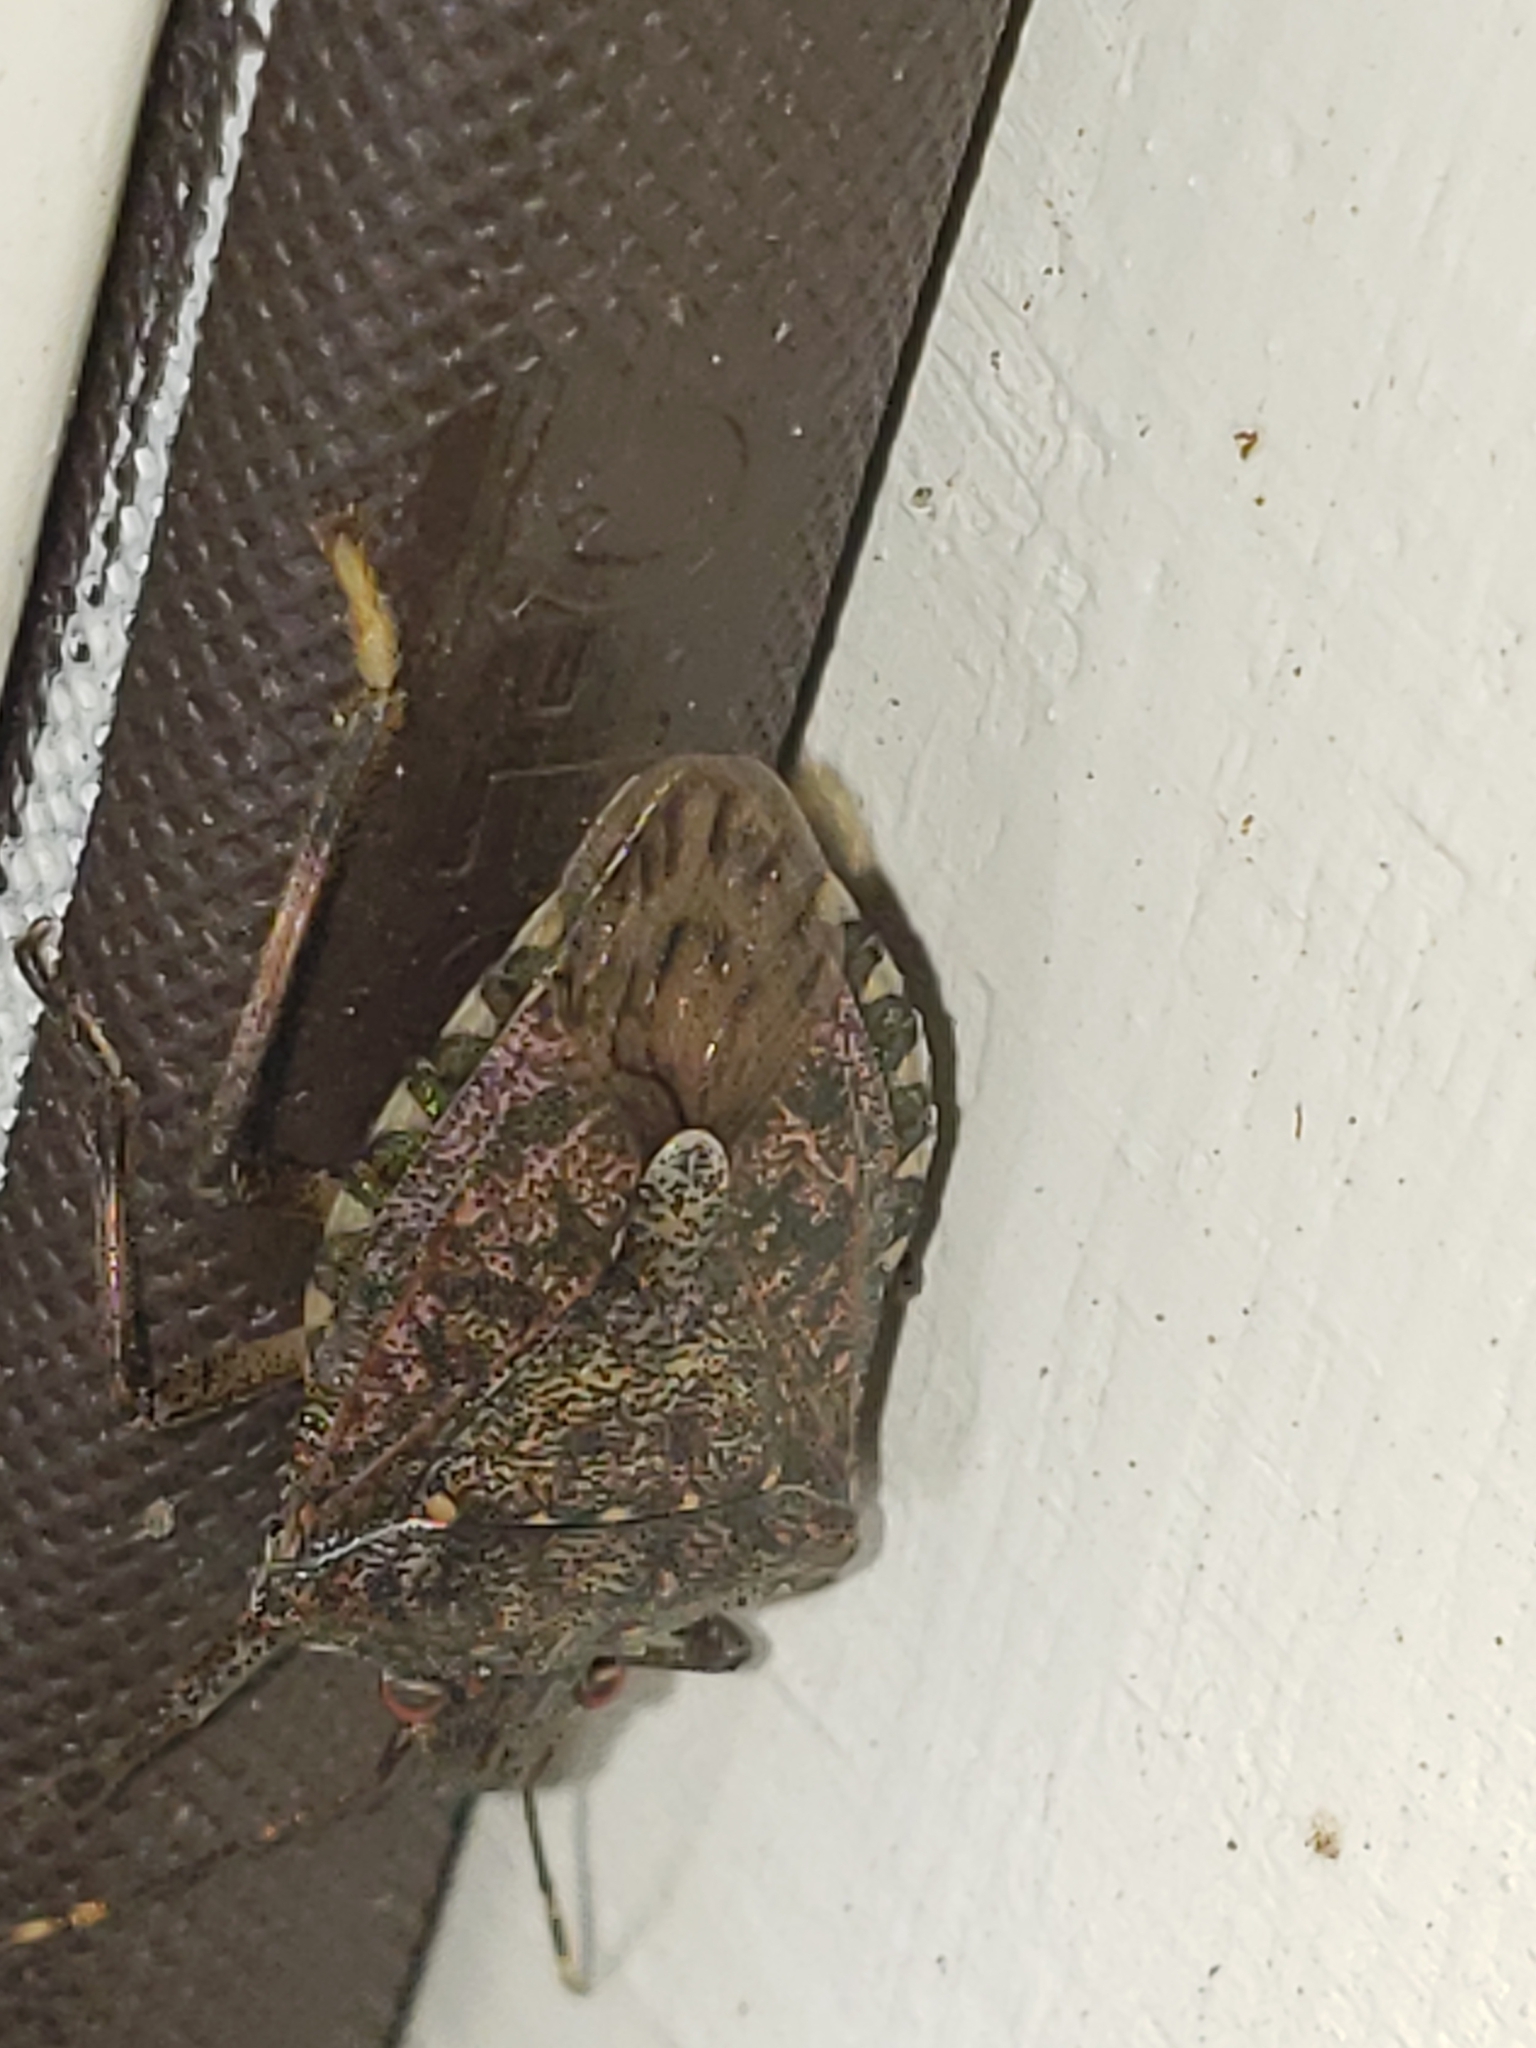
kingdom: Animalia
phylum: Arthropoda
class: Insecta
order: Hemiptera
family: Pentatomidae
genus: Halyomorpha
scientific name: Halyomorpha halys
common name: Brown marmorated stink bug
